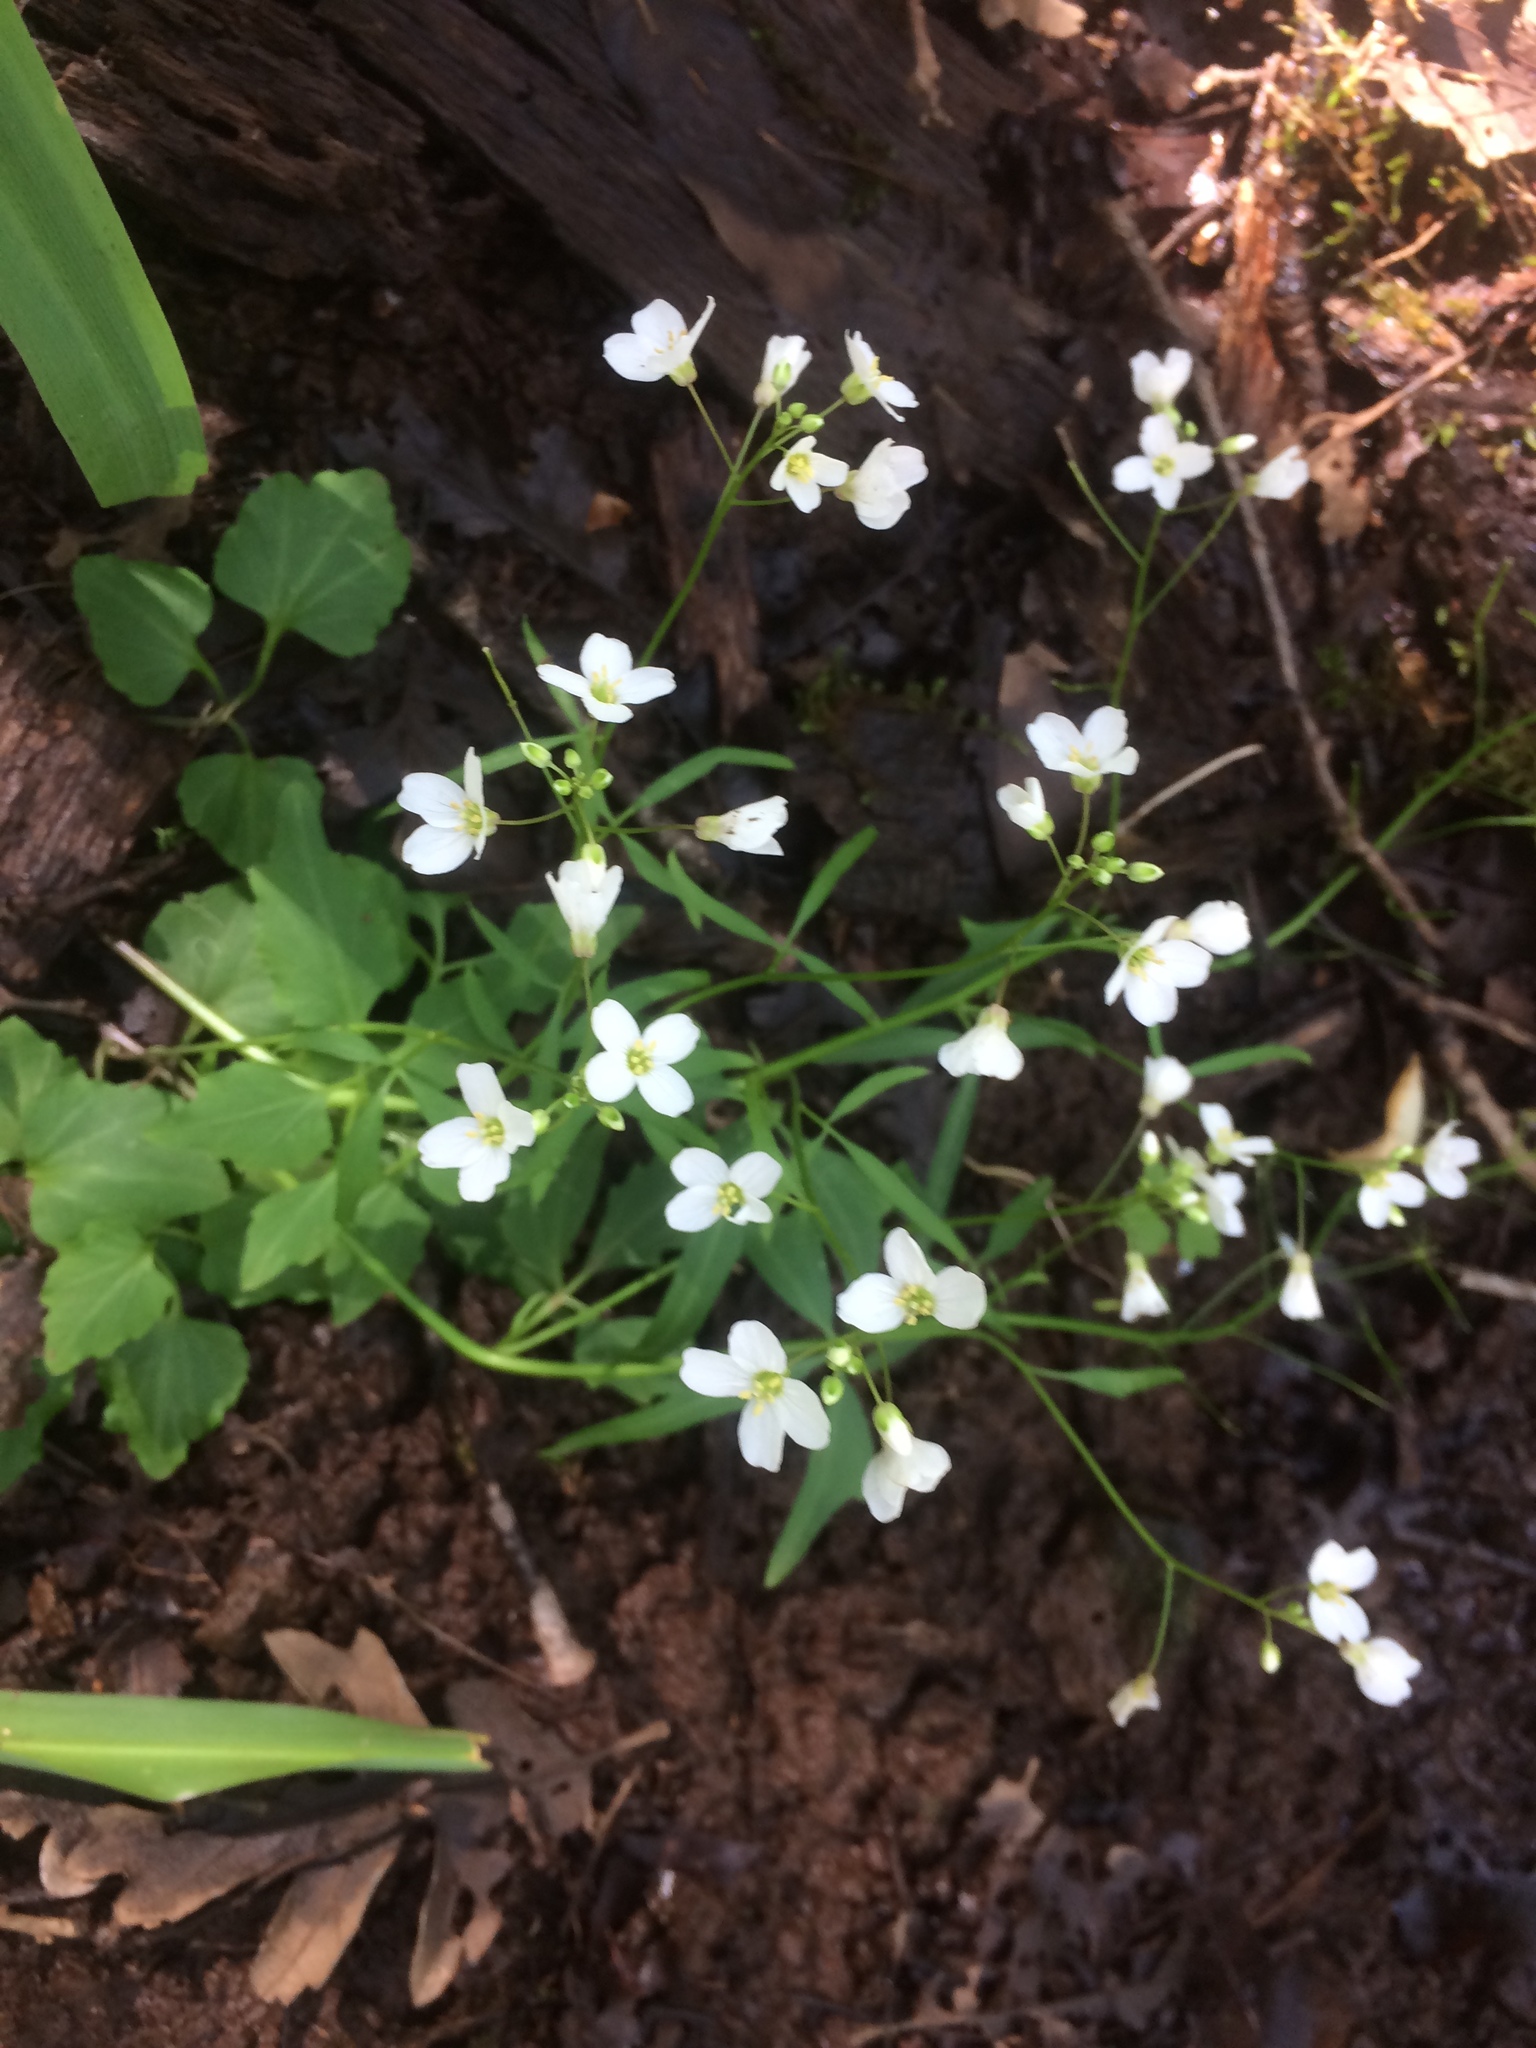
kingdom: Plantae
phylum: Tracheophyta
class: Magnoliopsida
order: Brassicales
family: Brassicaceae
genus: Cardamine
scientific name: Cardamine californica
